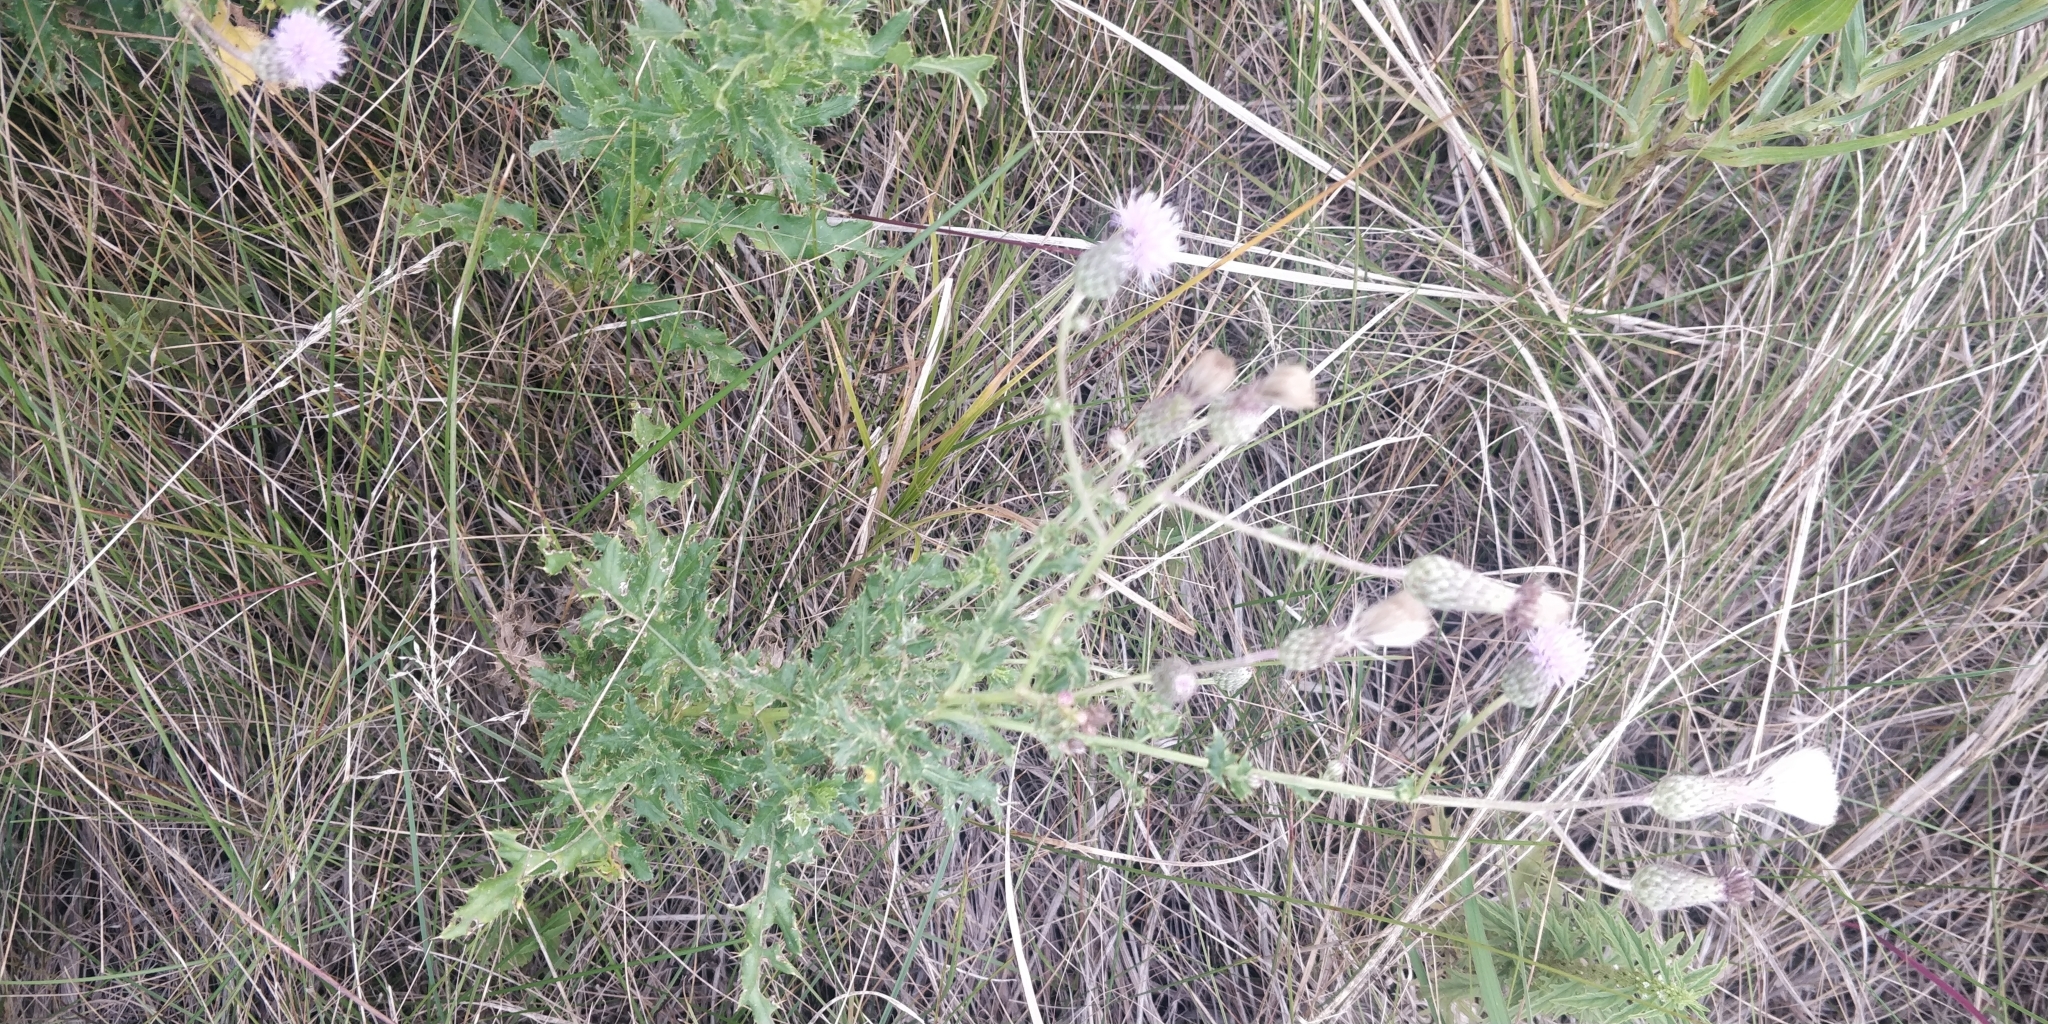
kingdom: Plantae
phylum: Tracheophyta
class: Magnoliopsida
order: Asterales
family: Asteraceae
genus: Cirsium
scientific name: Cirsium arvense
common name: Creeping thistle
